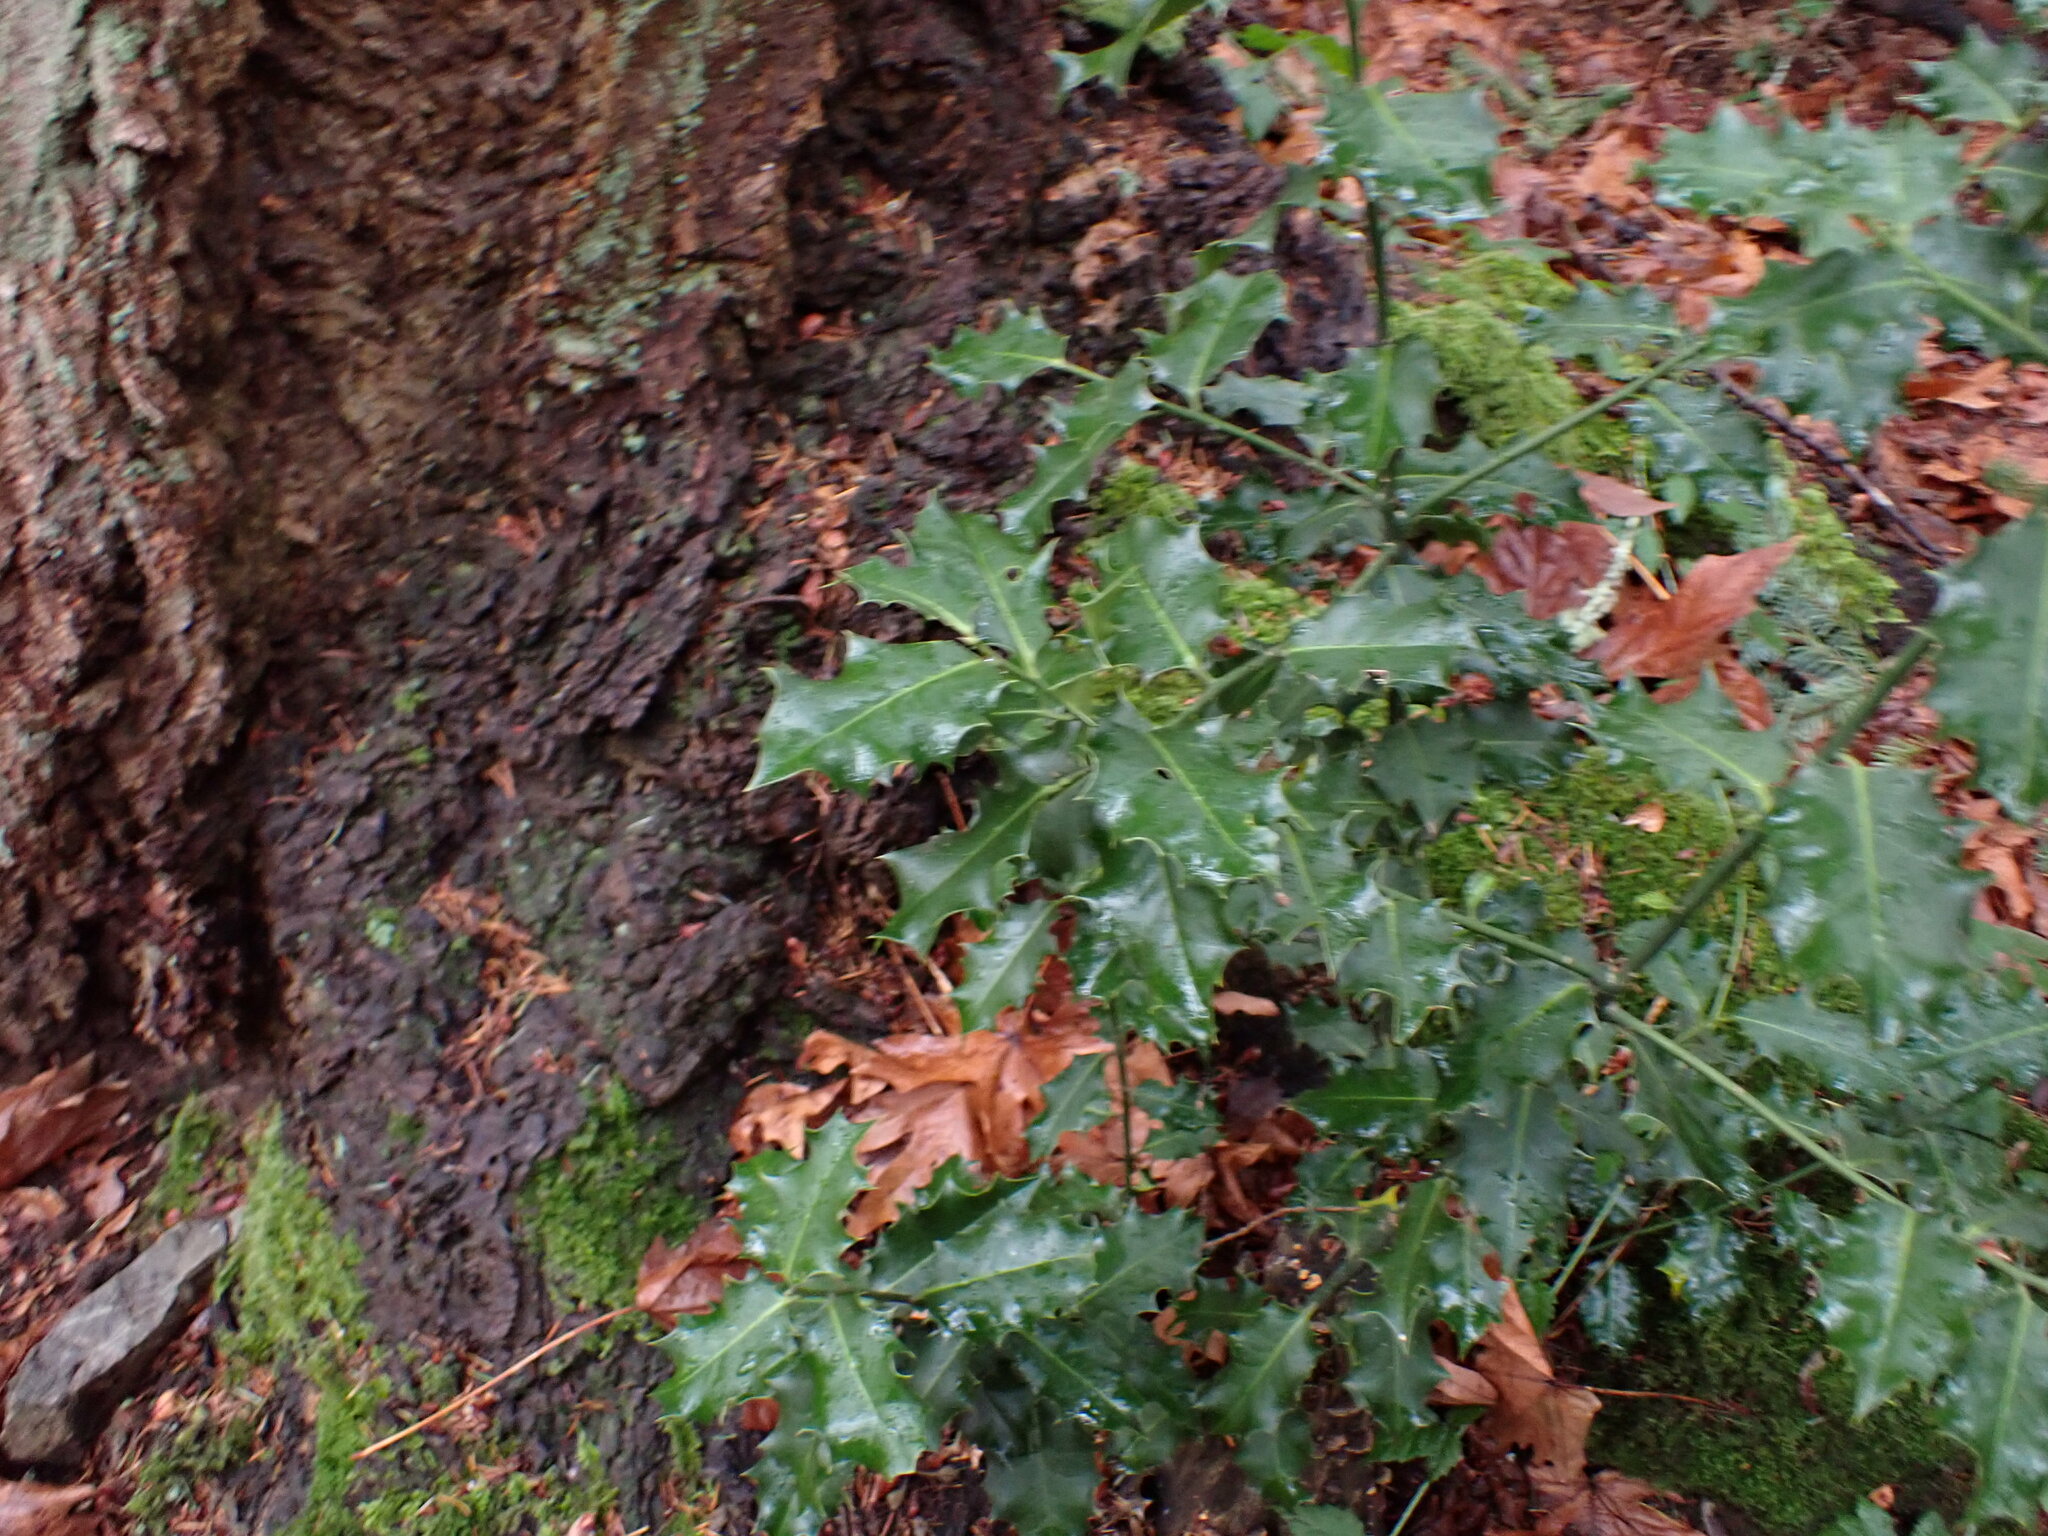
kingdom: Plantae
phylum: Tracheophyta
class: Magnoliopsida
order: Aquifoliales
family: Aquifoliaceae
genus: Ilex
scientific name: Ilex aquifolium
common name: English holly
